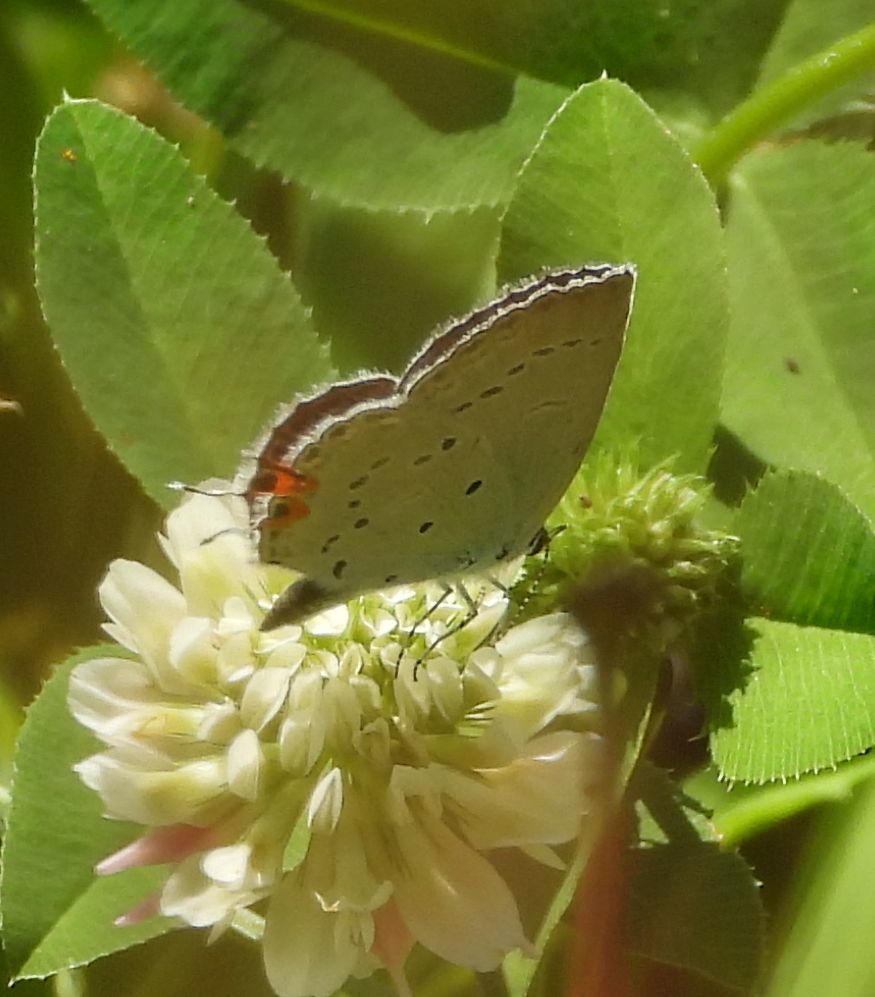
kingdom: Animalia
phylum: Arthropoda
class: Insecta
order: Lepidoptera
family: Lycaenidae
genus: Elkalyce
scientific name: Elkalyce comyntas
